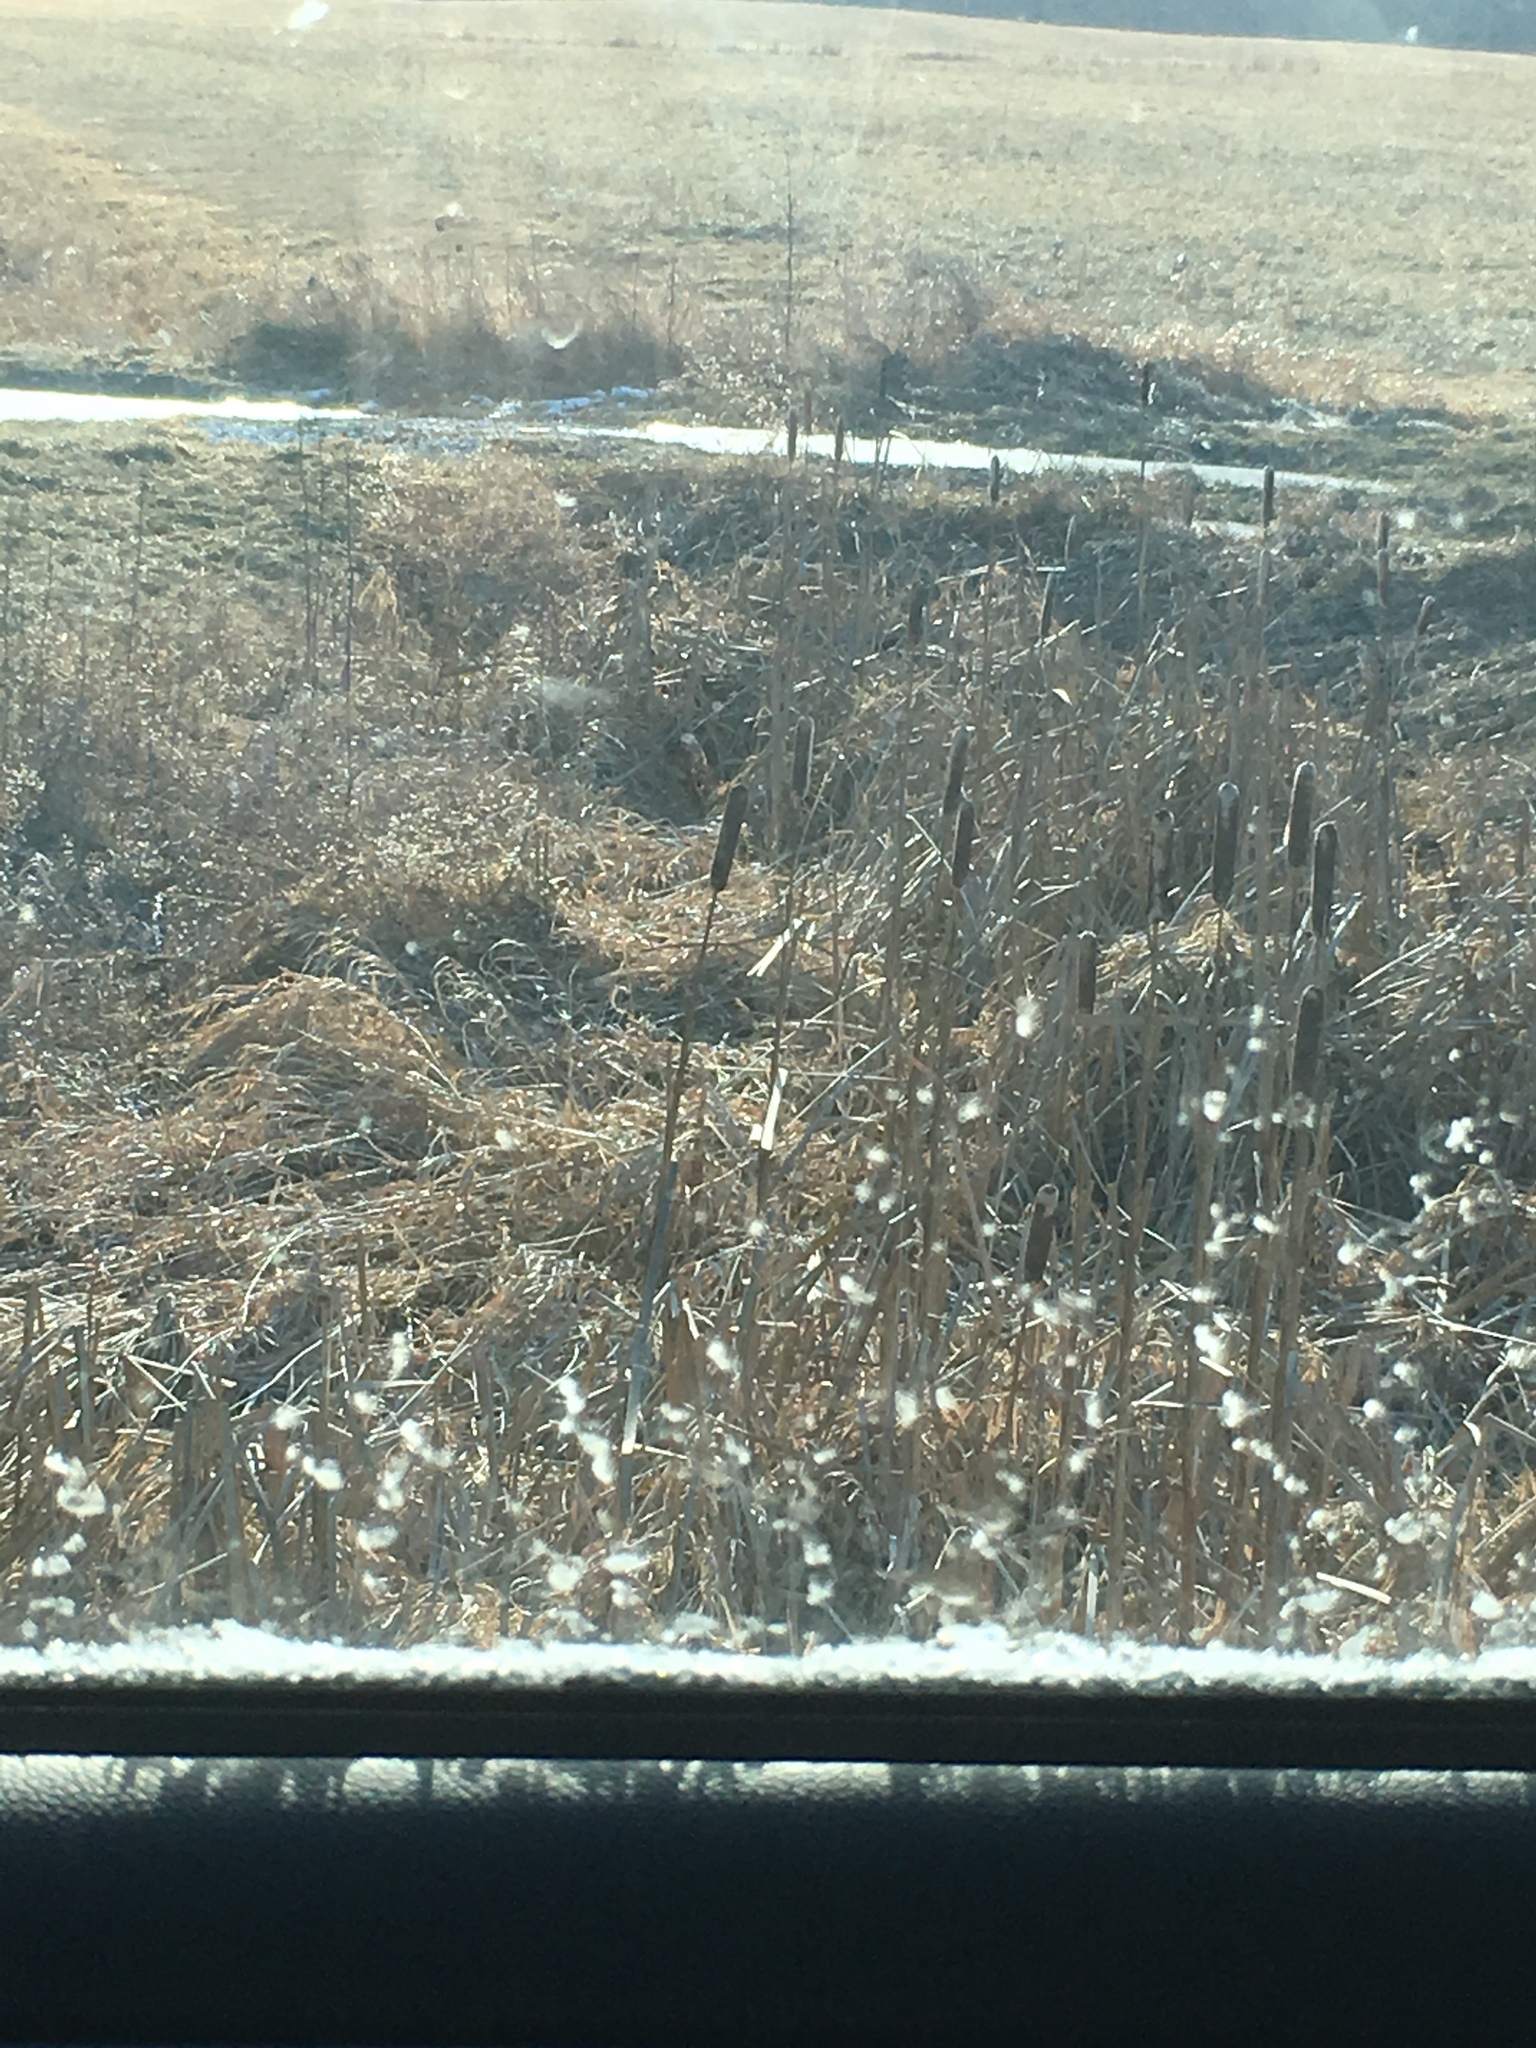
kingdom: Plantae
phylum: Tracheophyta
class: Liliopsida
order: Poales
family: Typhaceae
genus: Typha
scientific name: Typha
